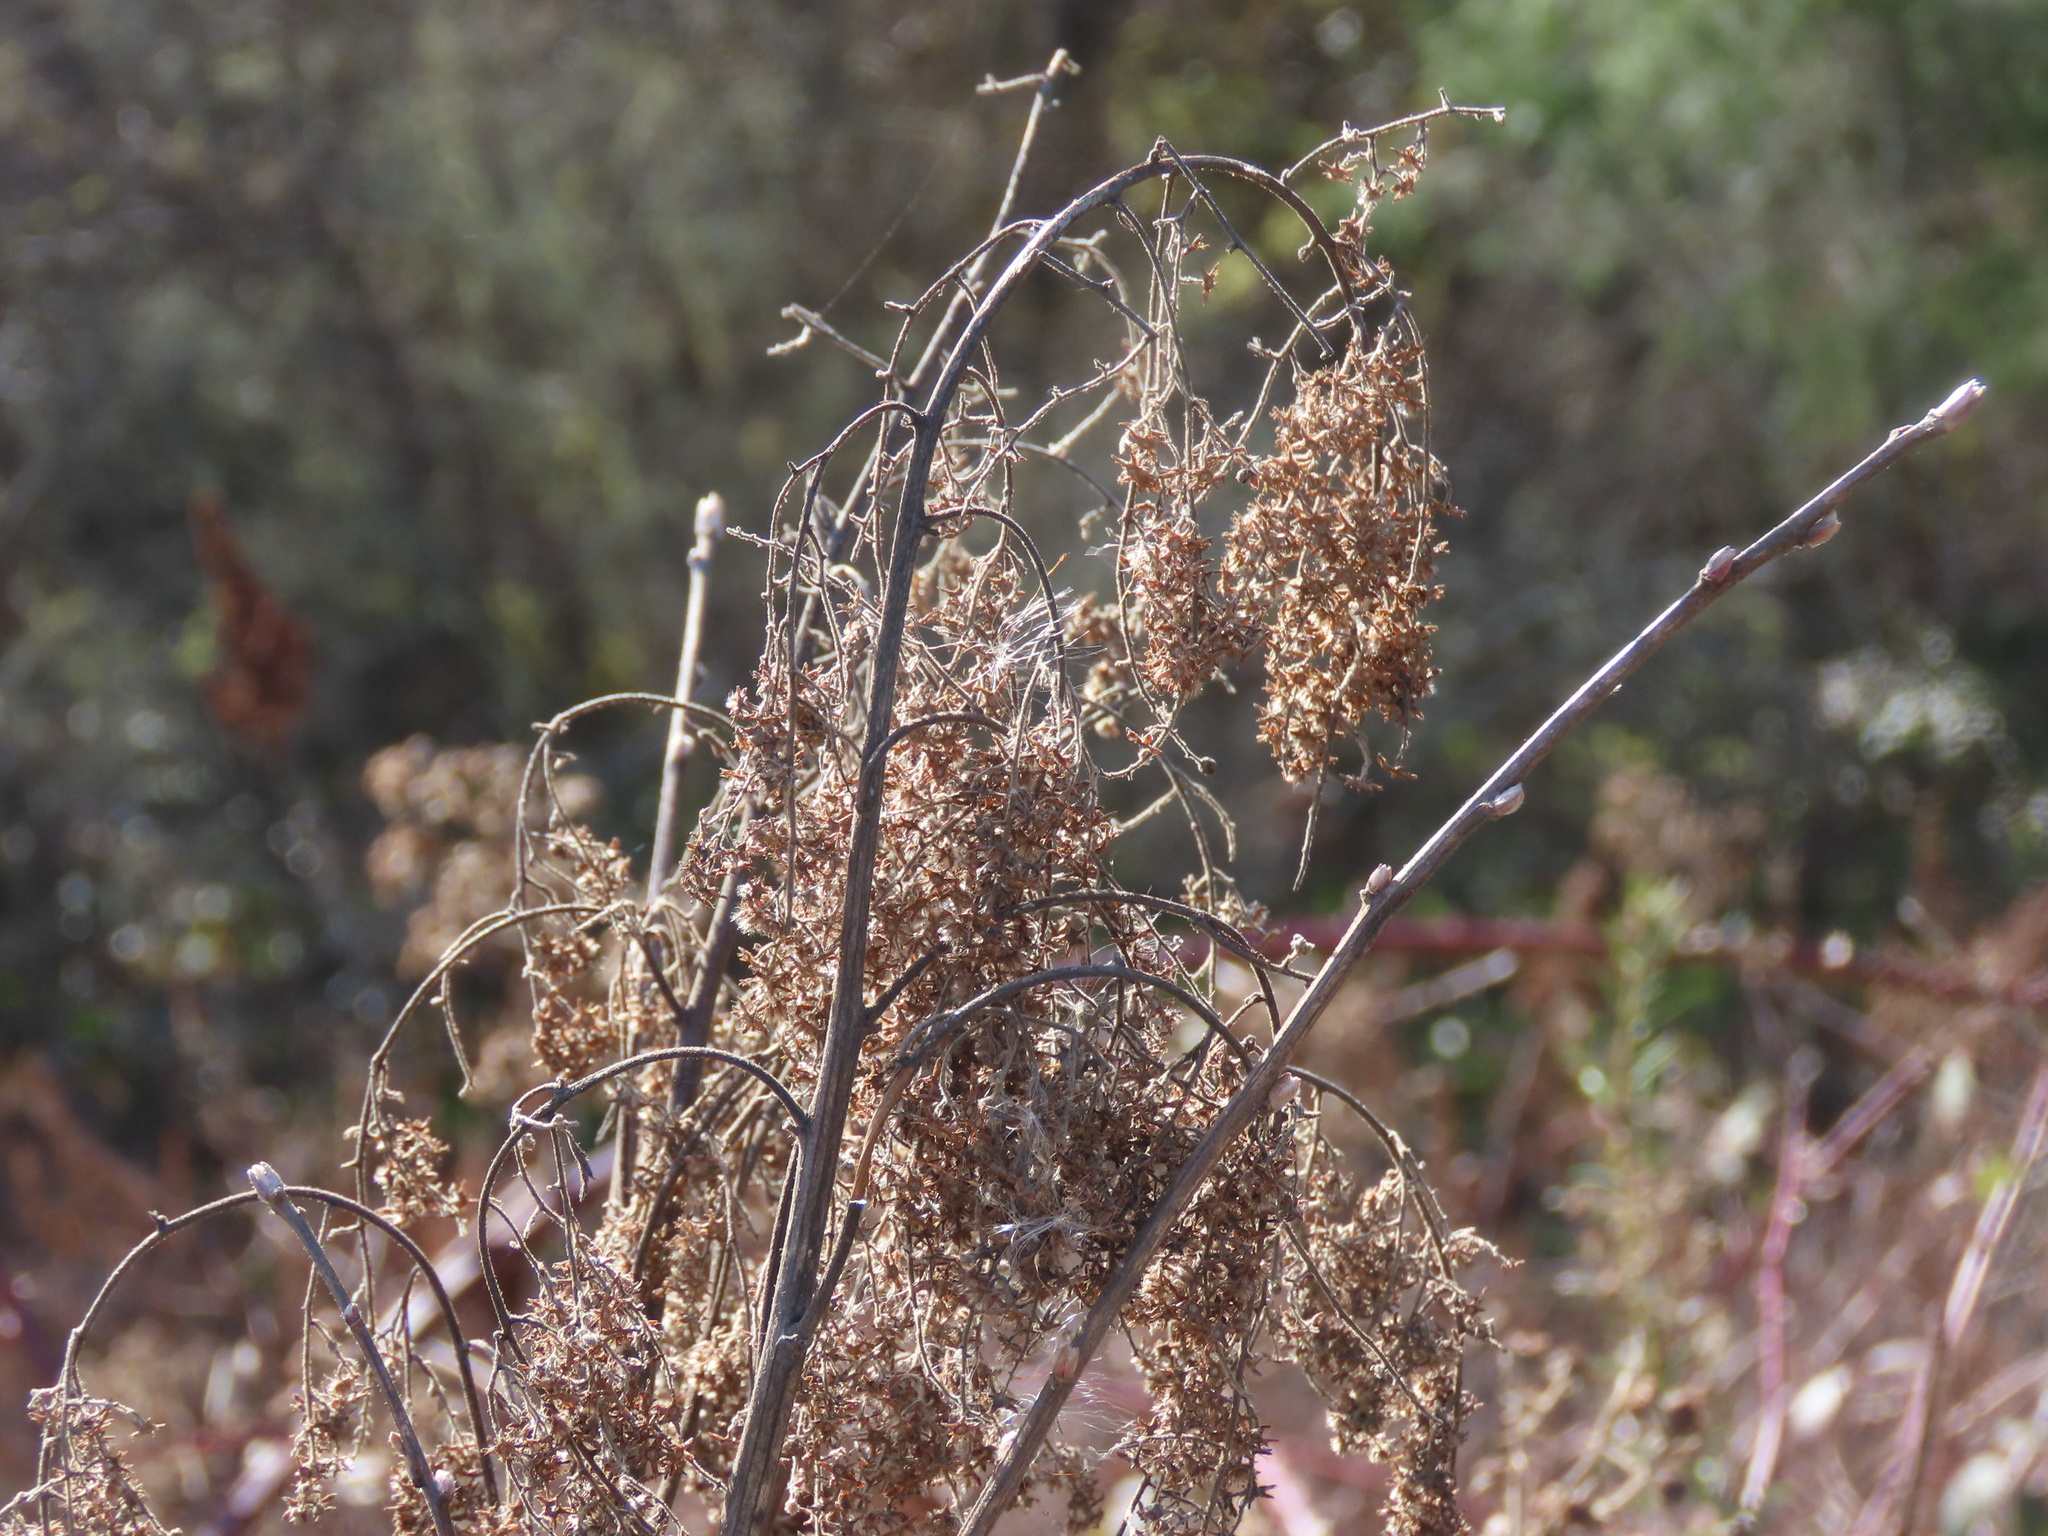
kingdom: Plantae
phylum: Tracheophyta
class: Magnoliopsida
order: Rosales
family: Rosaceae
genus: Holodiscus
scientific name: Holodiscus discolor
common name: Oceanspray
